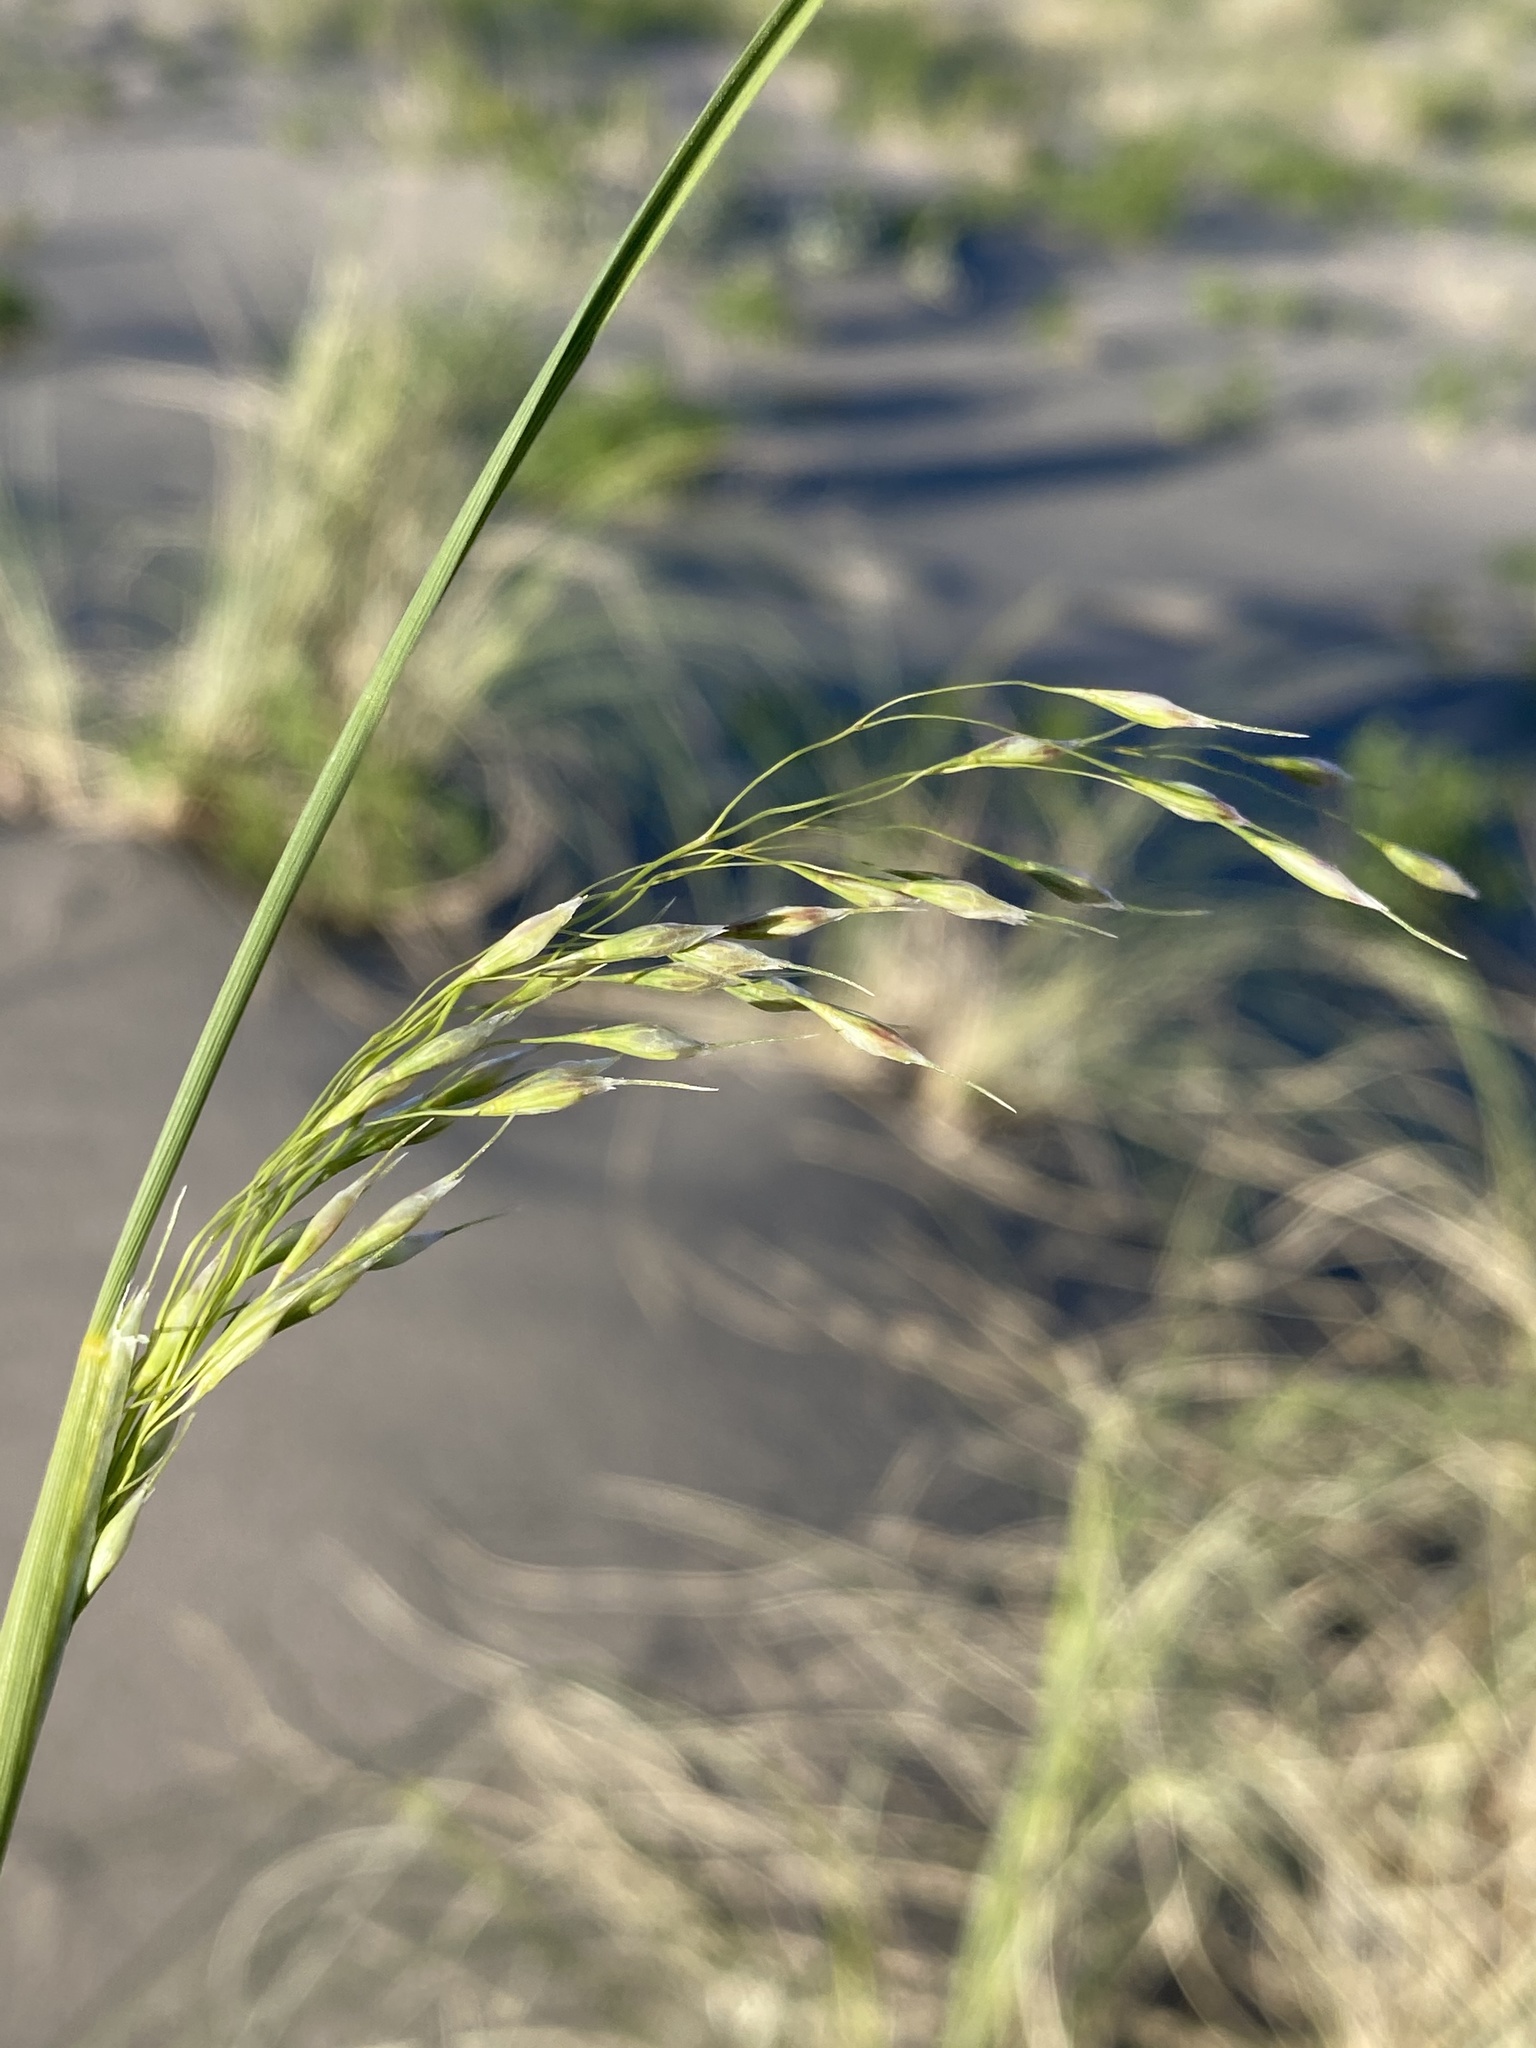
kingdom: Plantae
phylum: Tracheophyta
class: Liliopsida
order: Poales
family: Poaceae
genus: Eriocoma
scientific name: Eriocoma hymenoides
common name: Indian mountain ricegrass
